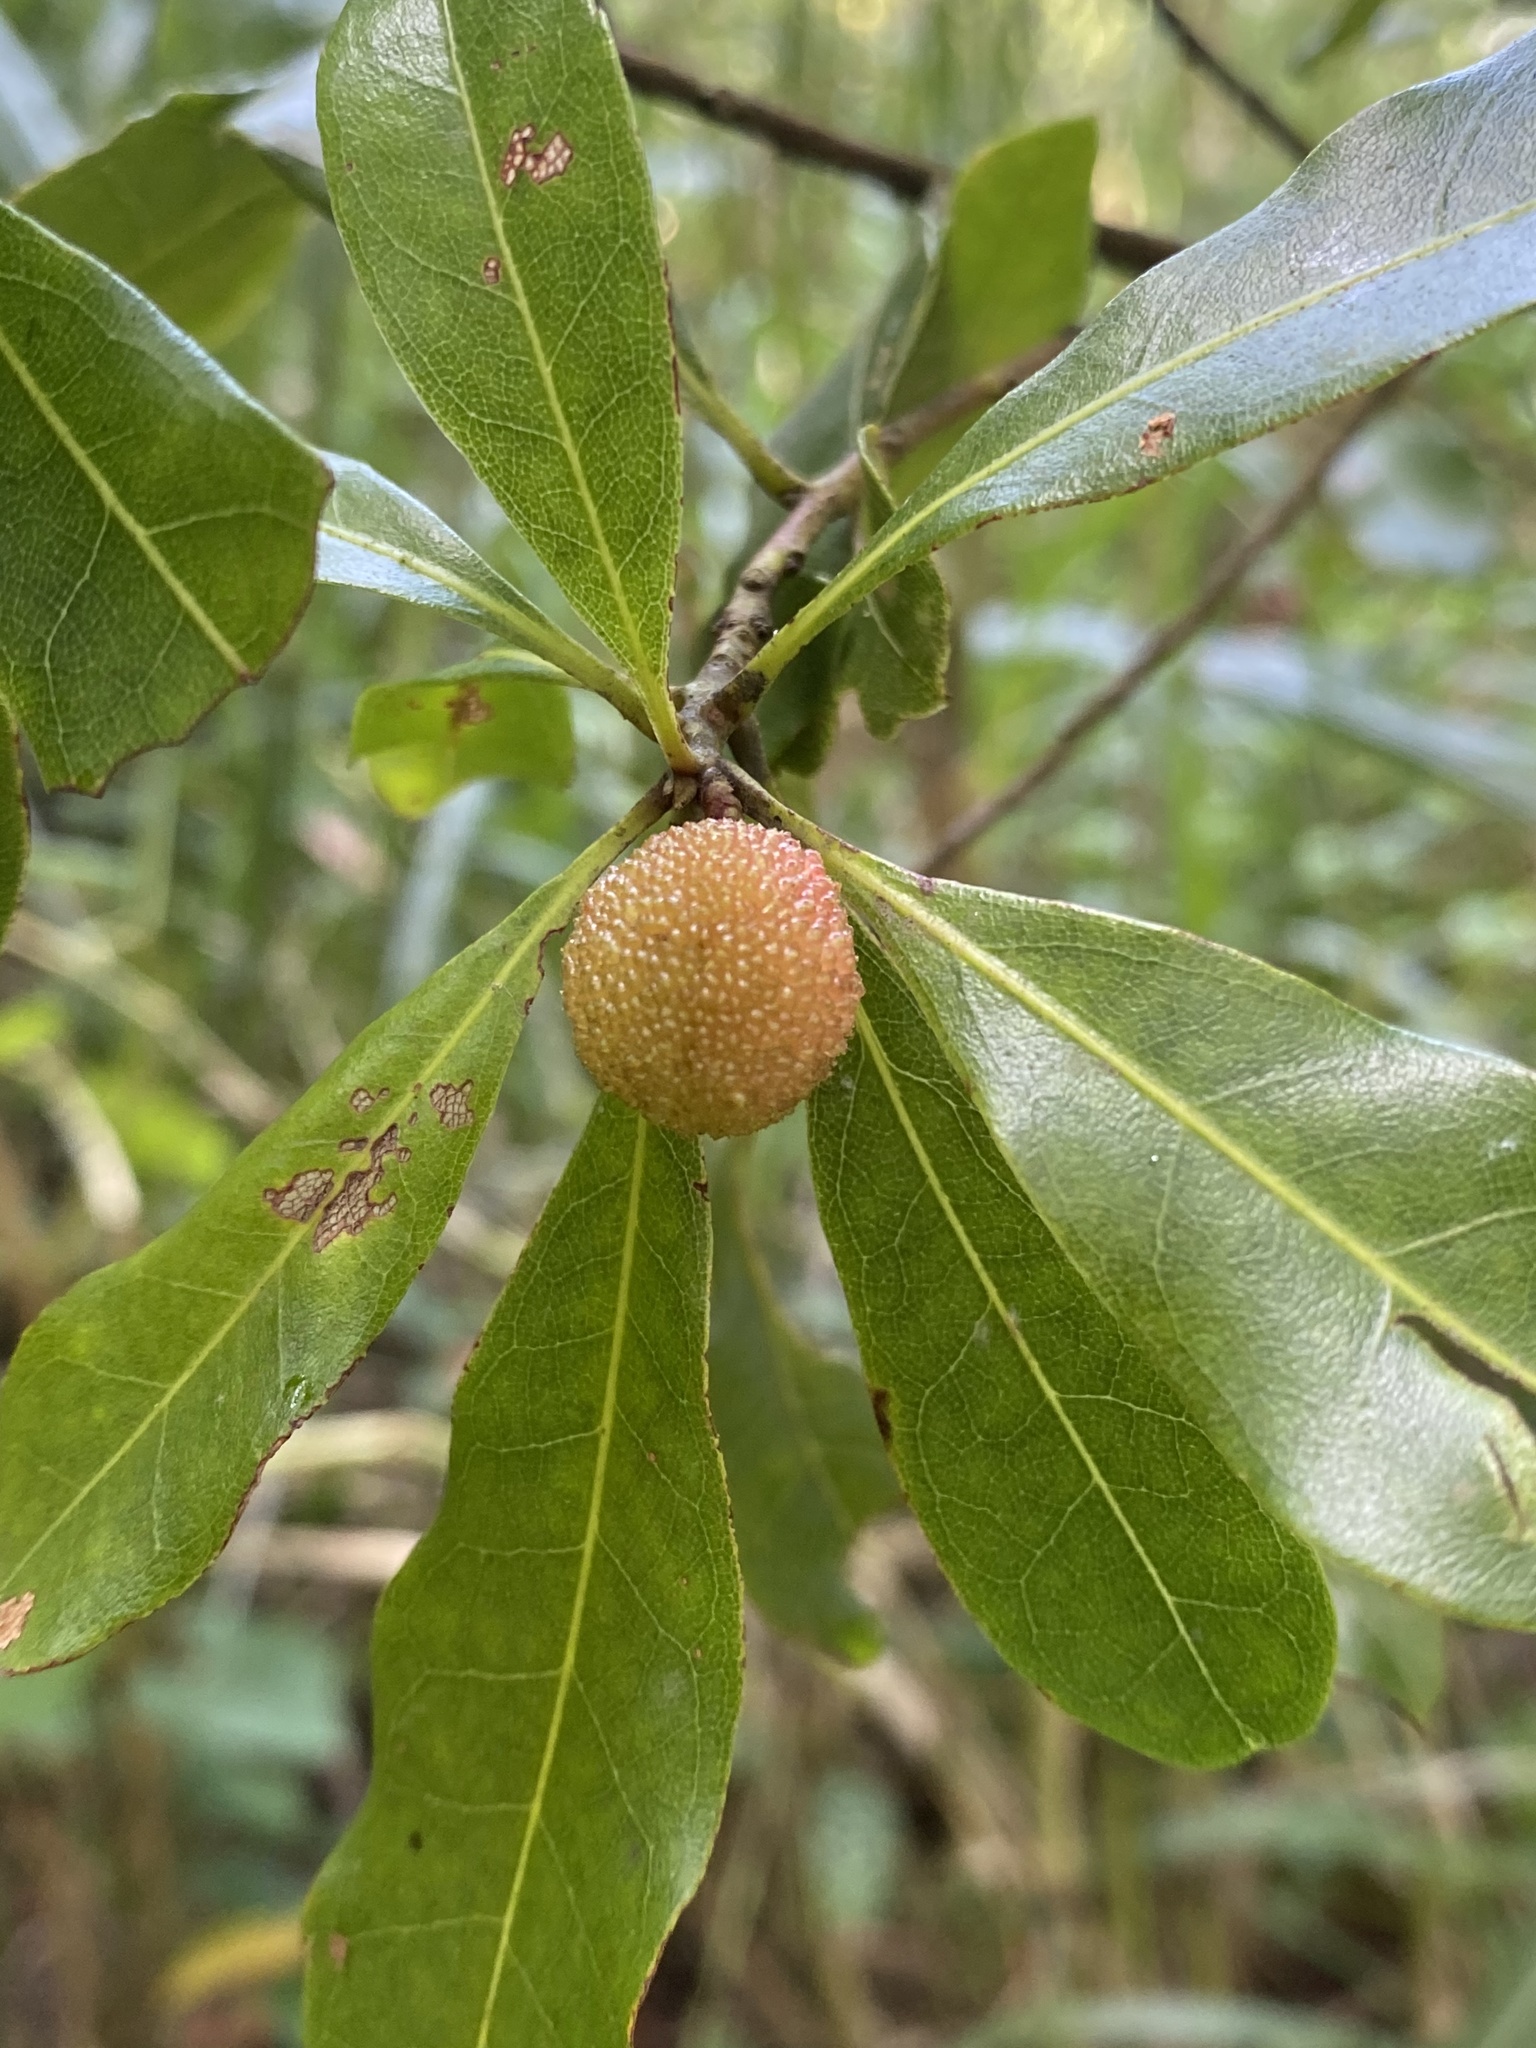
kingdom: Plantae
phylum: Tracheophyta
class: Magnoliopsida
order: Fagales
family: Myricaceae
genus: Morella
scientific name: Morella rubra
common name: Red bayberry
